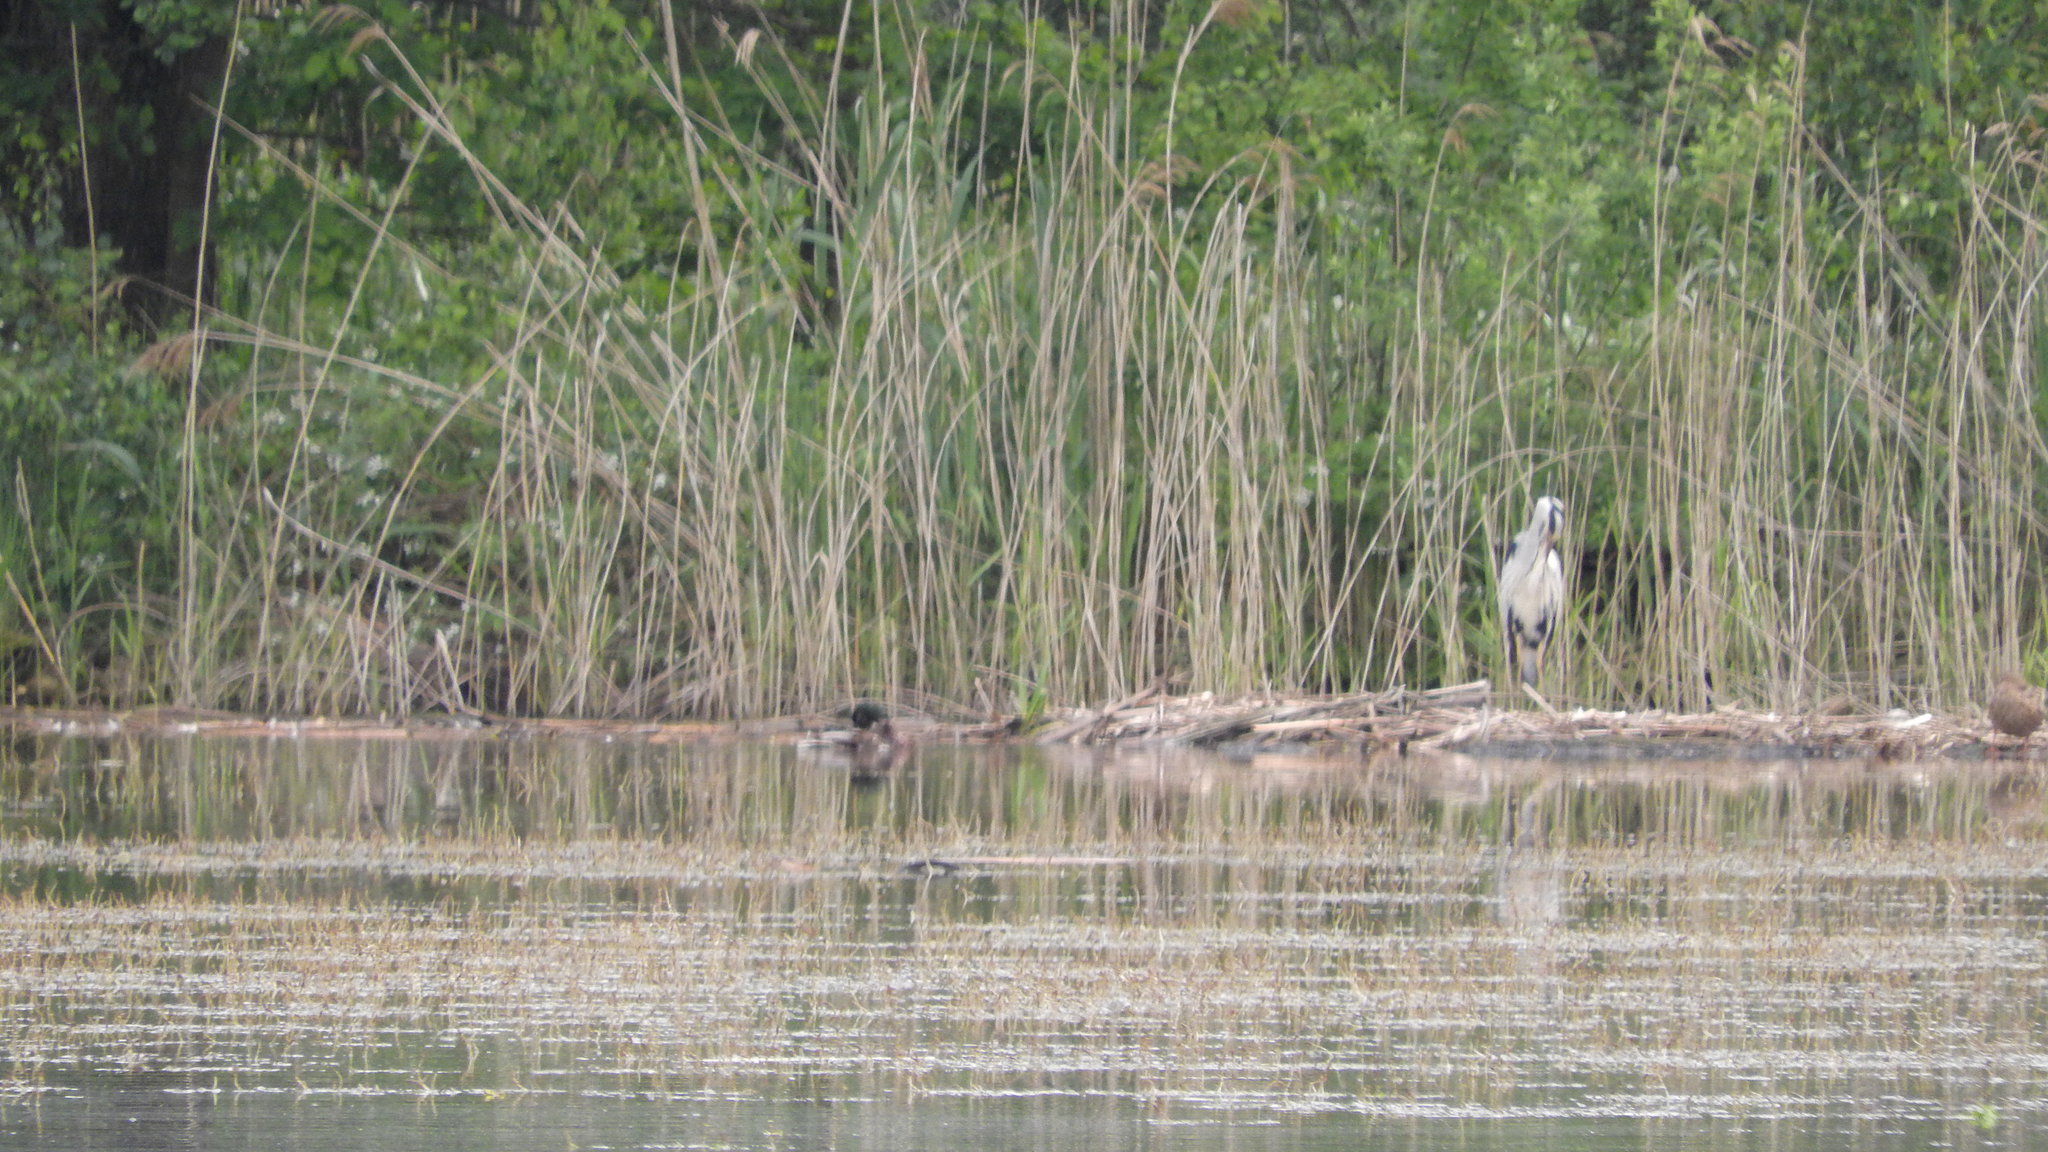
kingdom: Animalia
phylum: Chordata
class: Aves
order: Pelecaniformes
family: Ardeidae
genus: Ardea
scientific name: Ardea cinerea
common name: Grey heron
